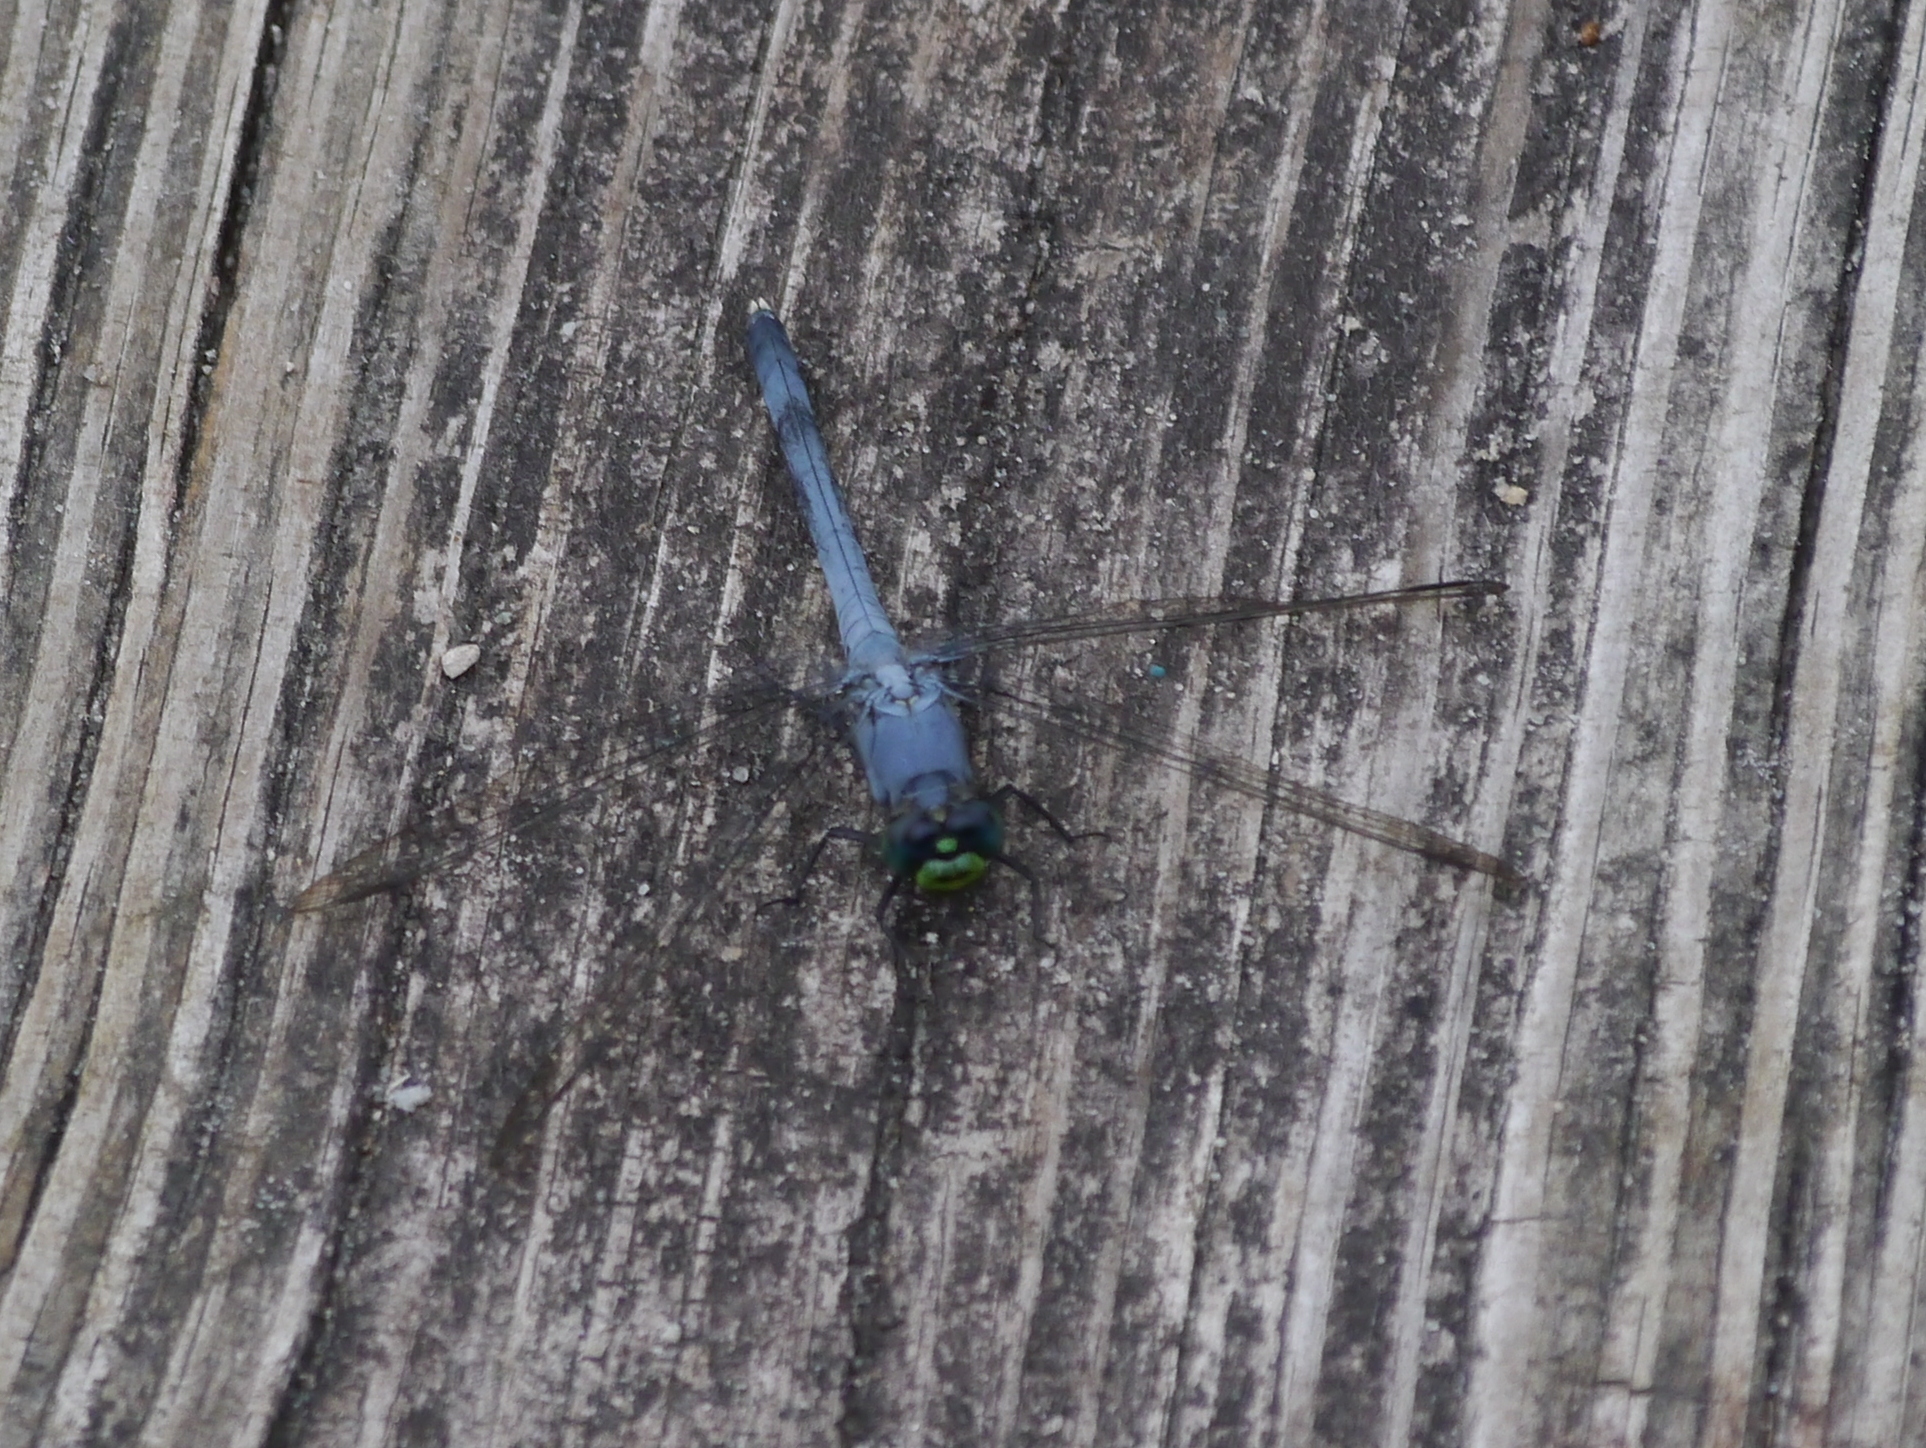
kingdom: Animalia
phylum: Arthropoda
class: Insecta
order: Odonata
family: Libellulidae
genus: Erythemis
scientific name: Erythemis simplicicollis
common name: Eastern pondhawk
